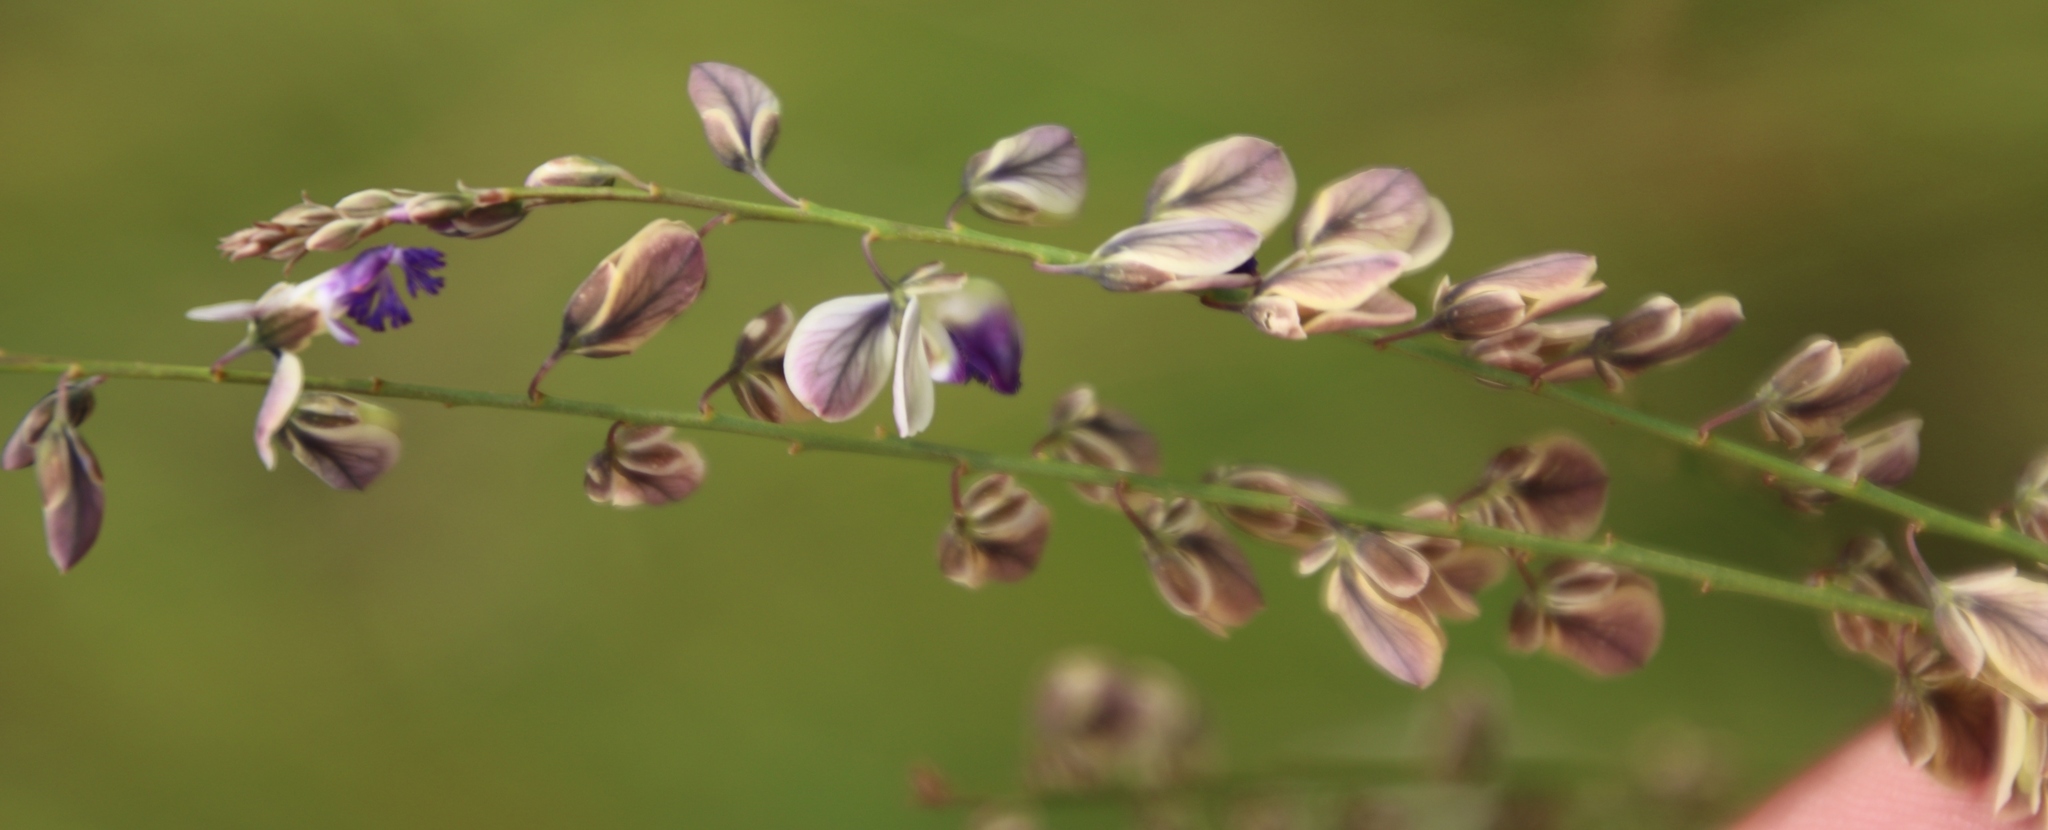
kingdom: Plantae
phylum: Tracheophyta
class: Magnoliopsida
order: Fabales
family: Polygalaceae
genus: Polygala
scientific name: Polygala houtboshiana
